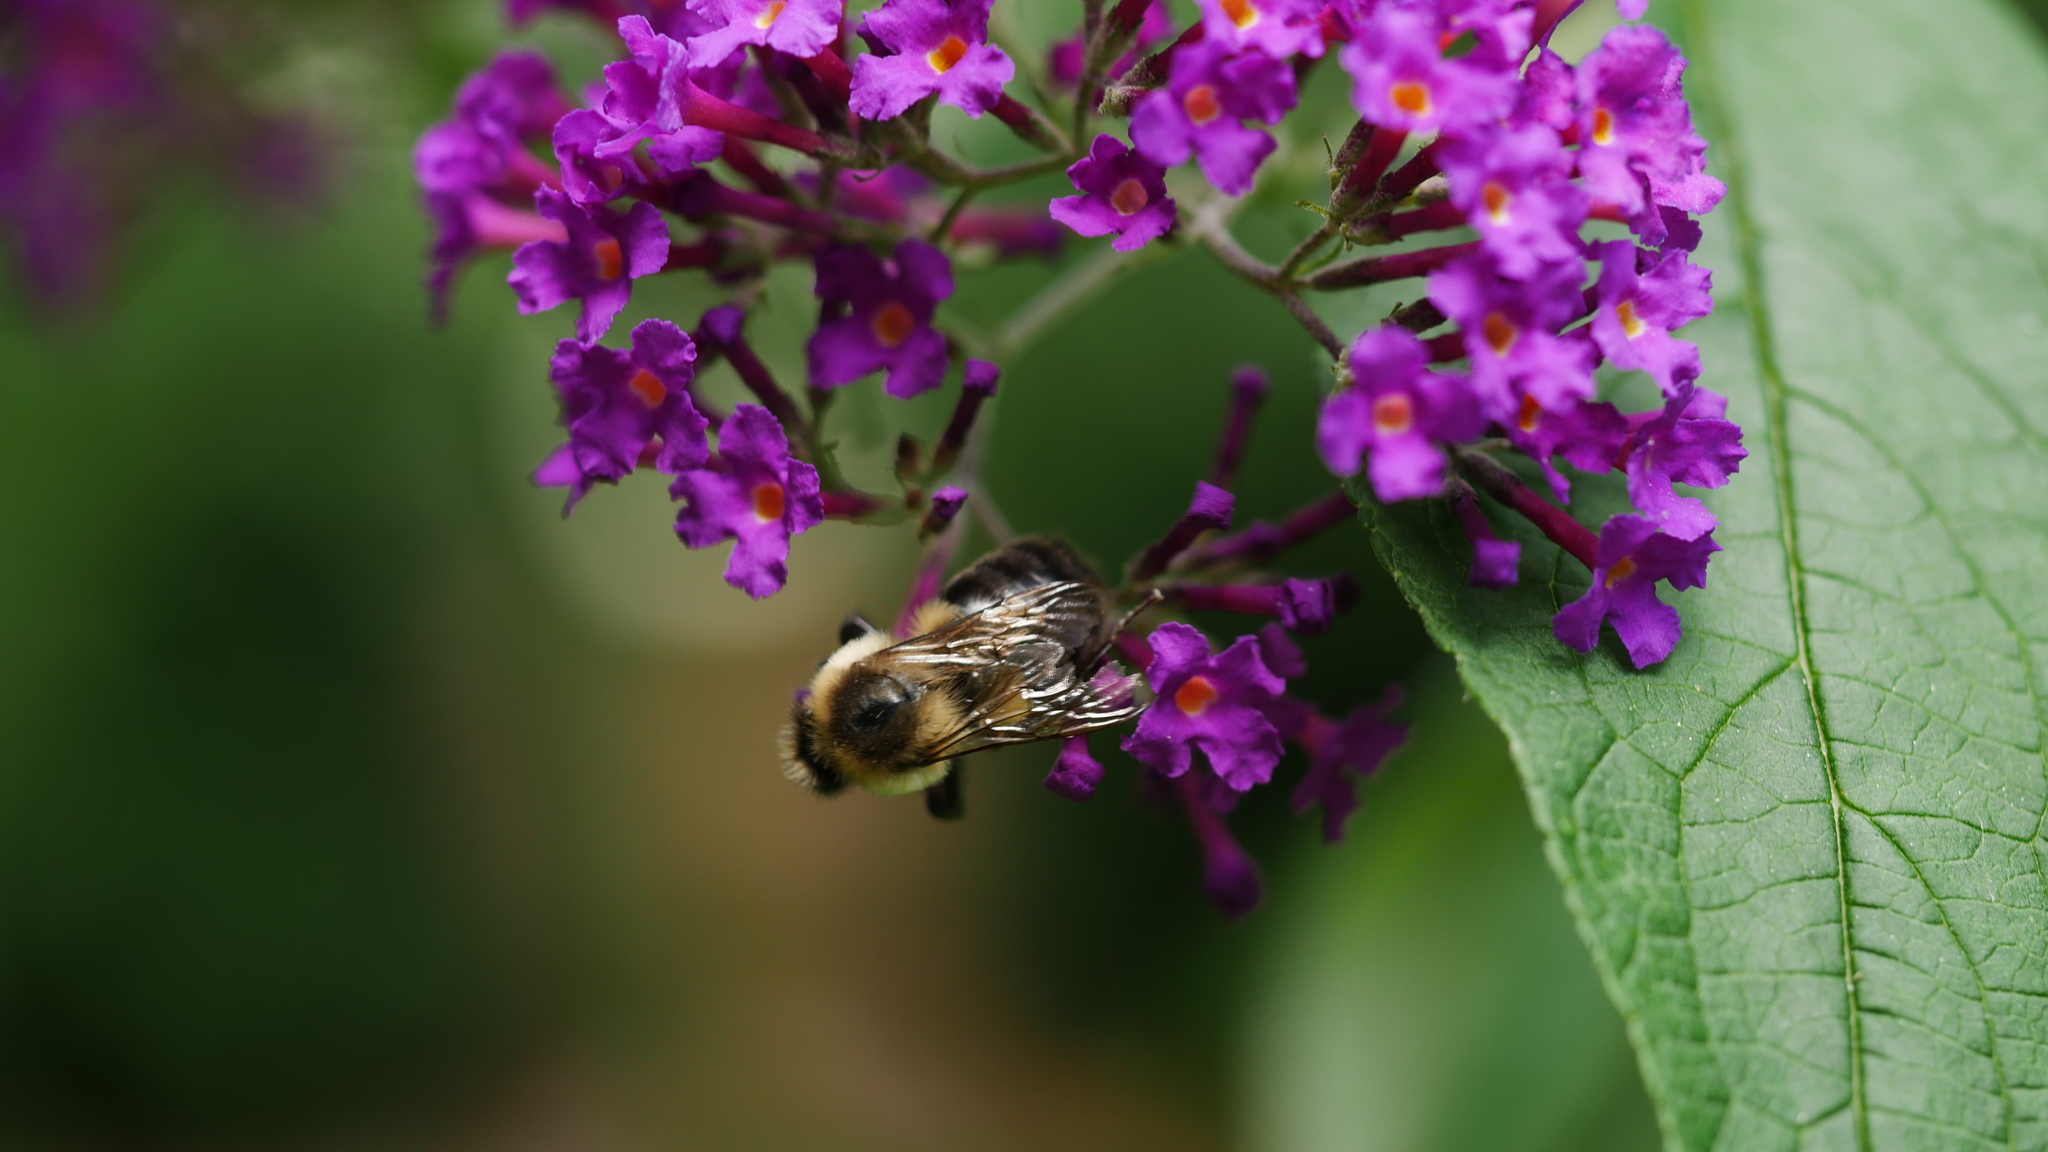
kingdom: Animalia
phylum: Arthropoda
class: Insecta
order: Hymenoptera
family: Apidae
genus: Bombus
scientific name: Bombus impatiens
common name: Common eastern bumble bee
